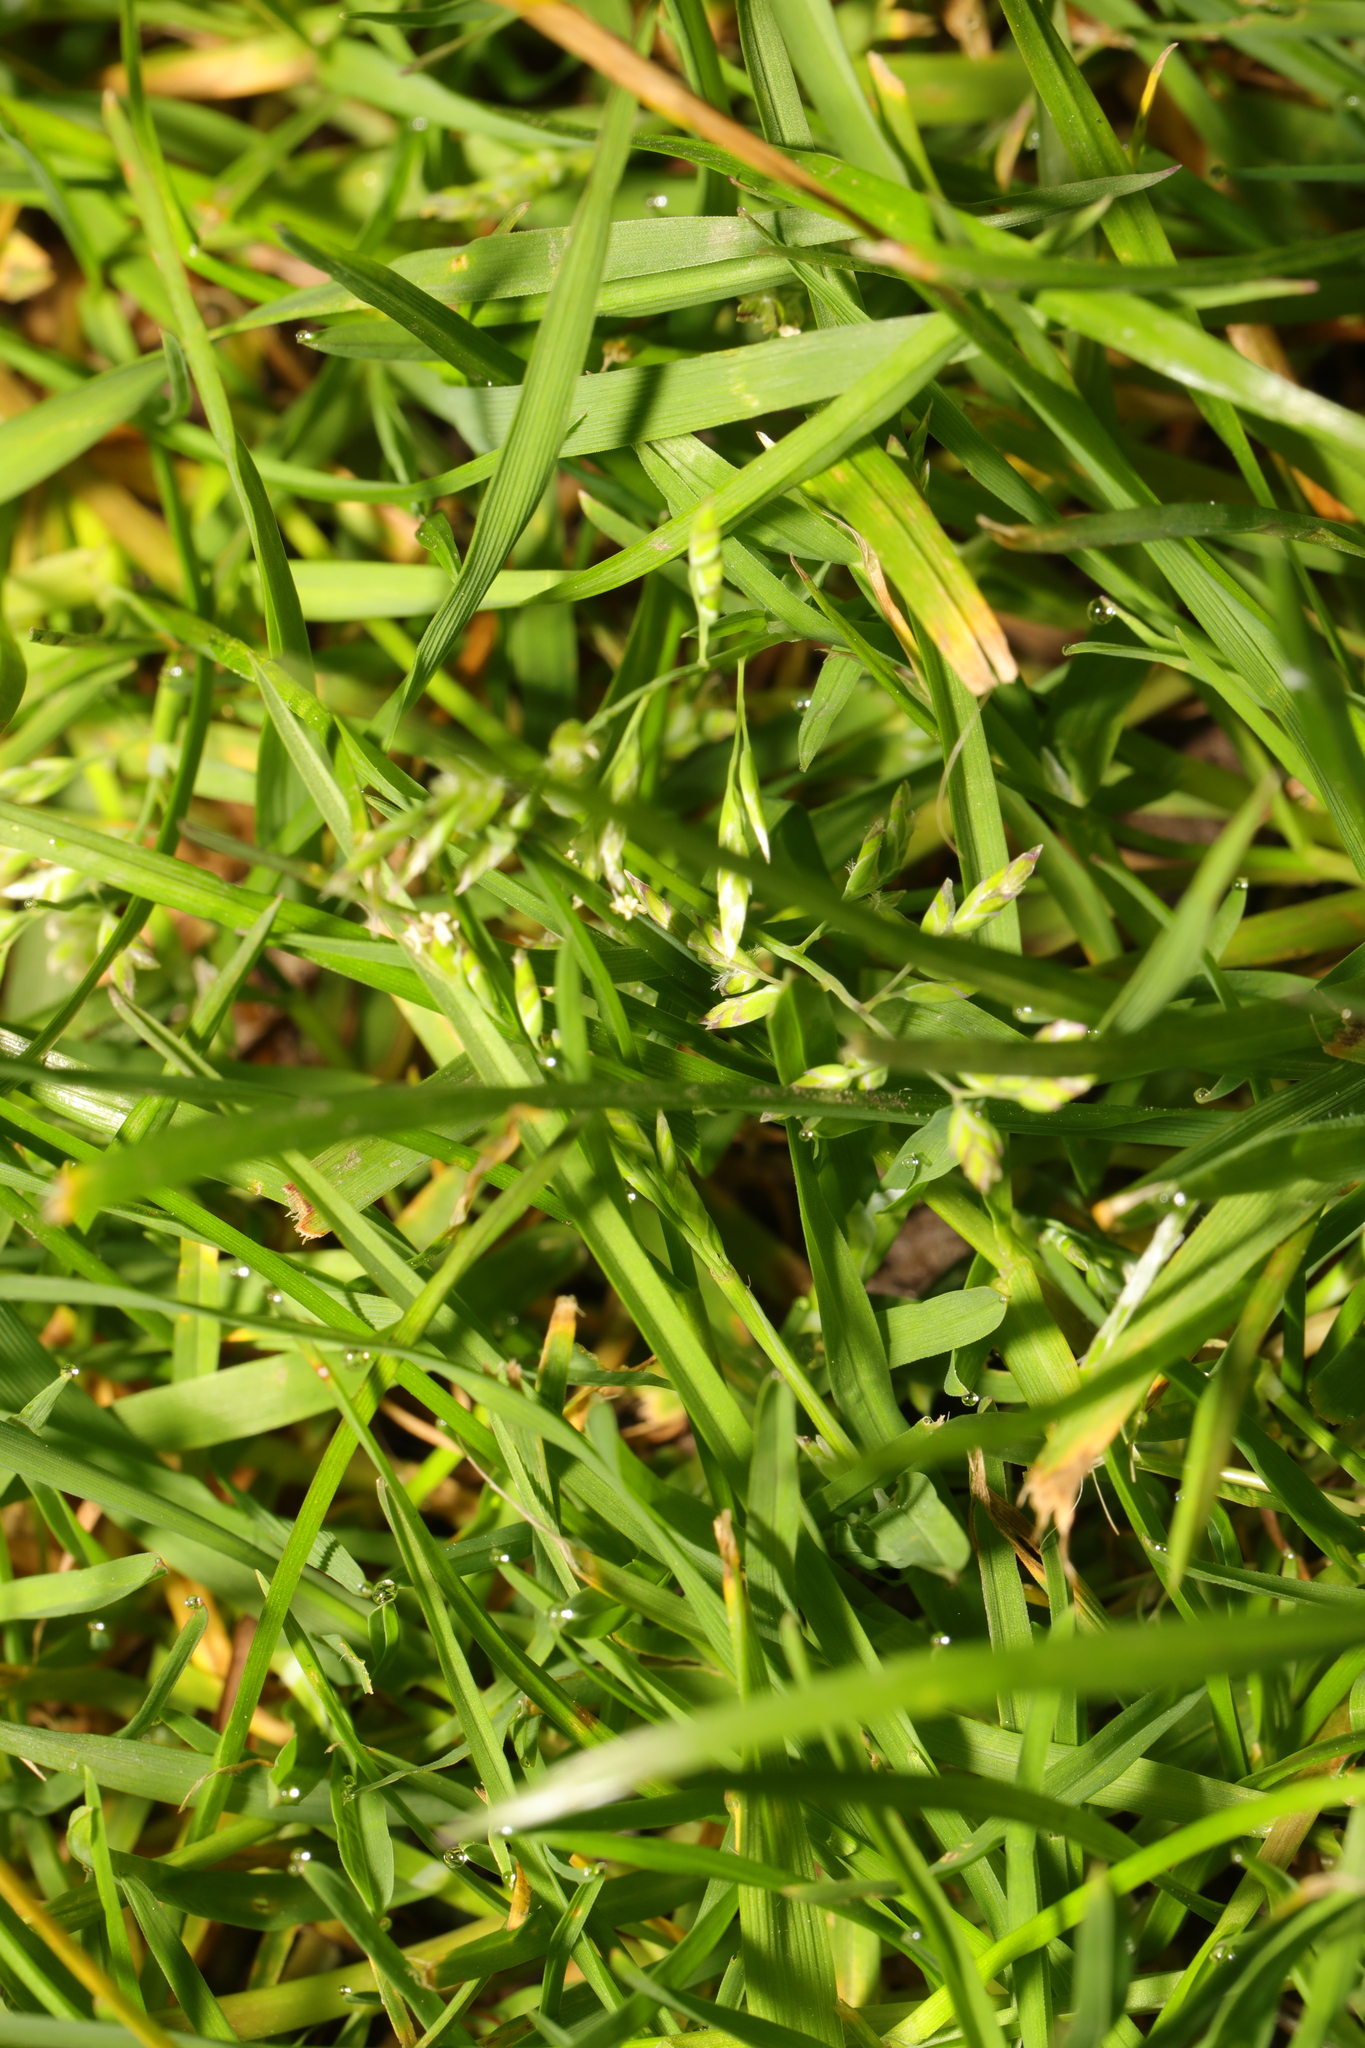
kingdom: Plantae
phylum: Tracheophyta
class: Liliopsida
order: Poales
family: Poaceae
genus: Poa
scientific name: Poa annua
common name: Annual bluegrass
